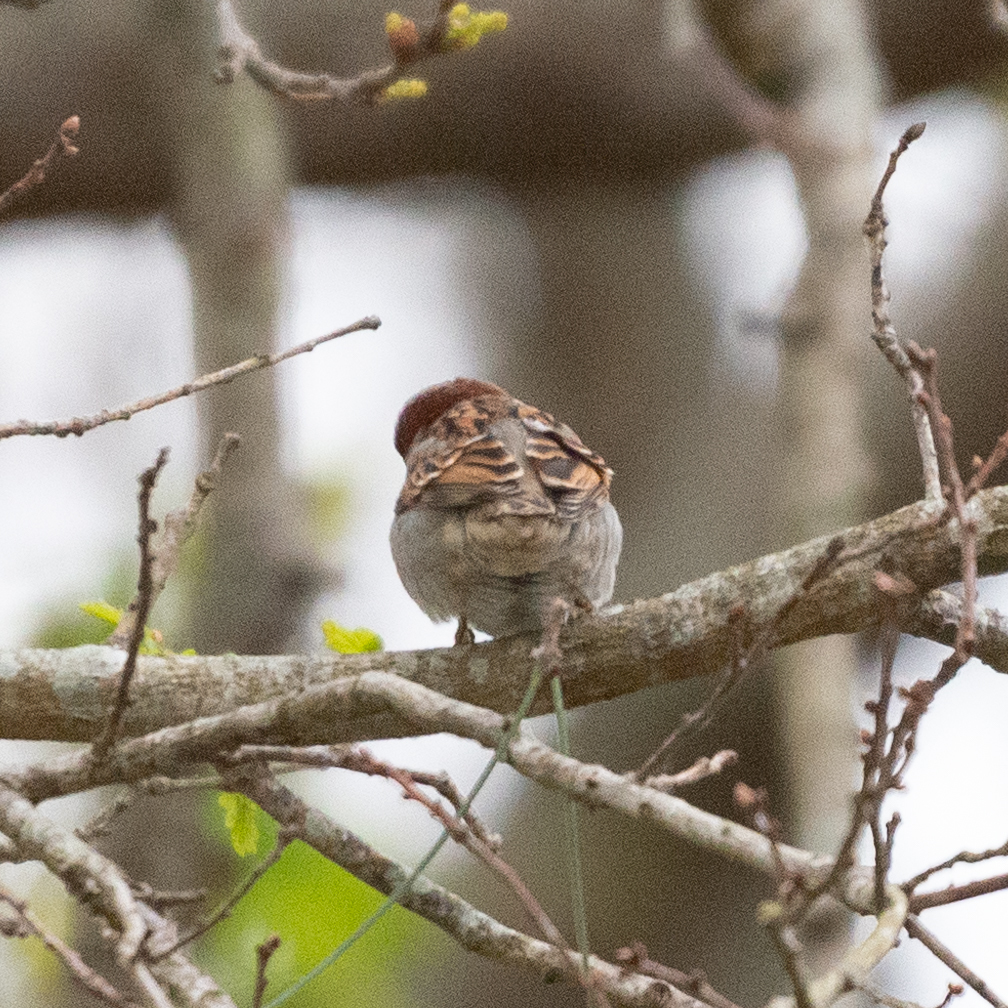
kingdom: Animalia
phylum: Chordata
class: Aves
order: Passeriformes
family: Passeridae
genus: Passer
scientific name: Passer domesticus
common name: House sparrow
